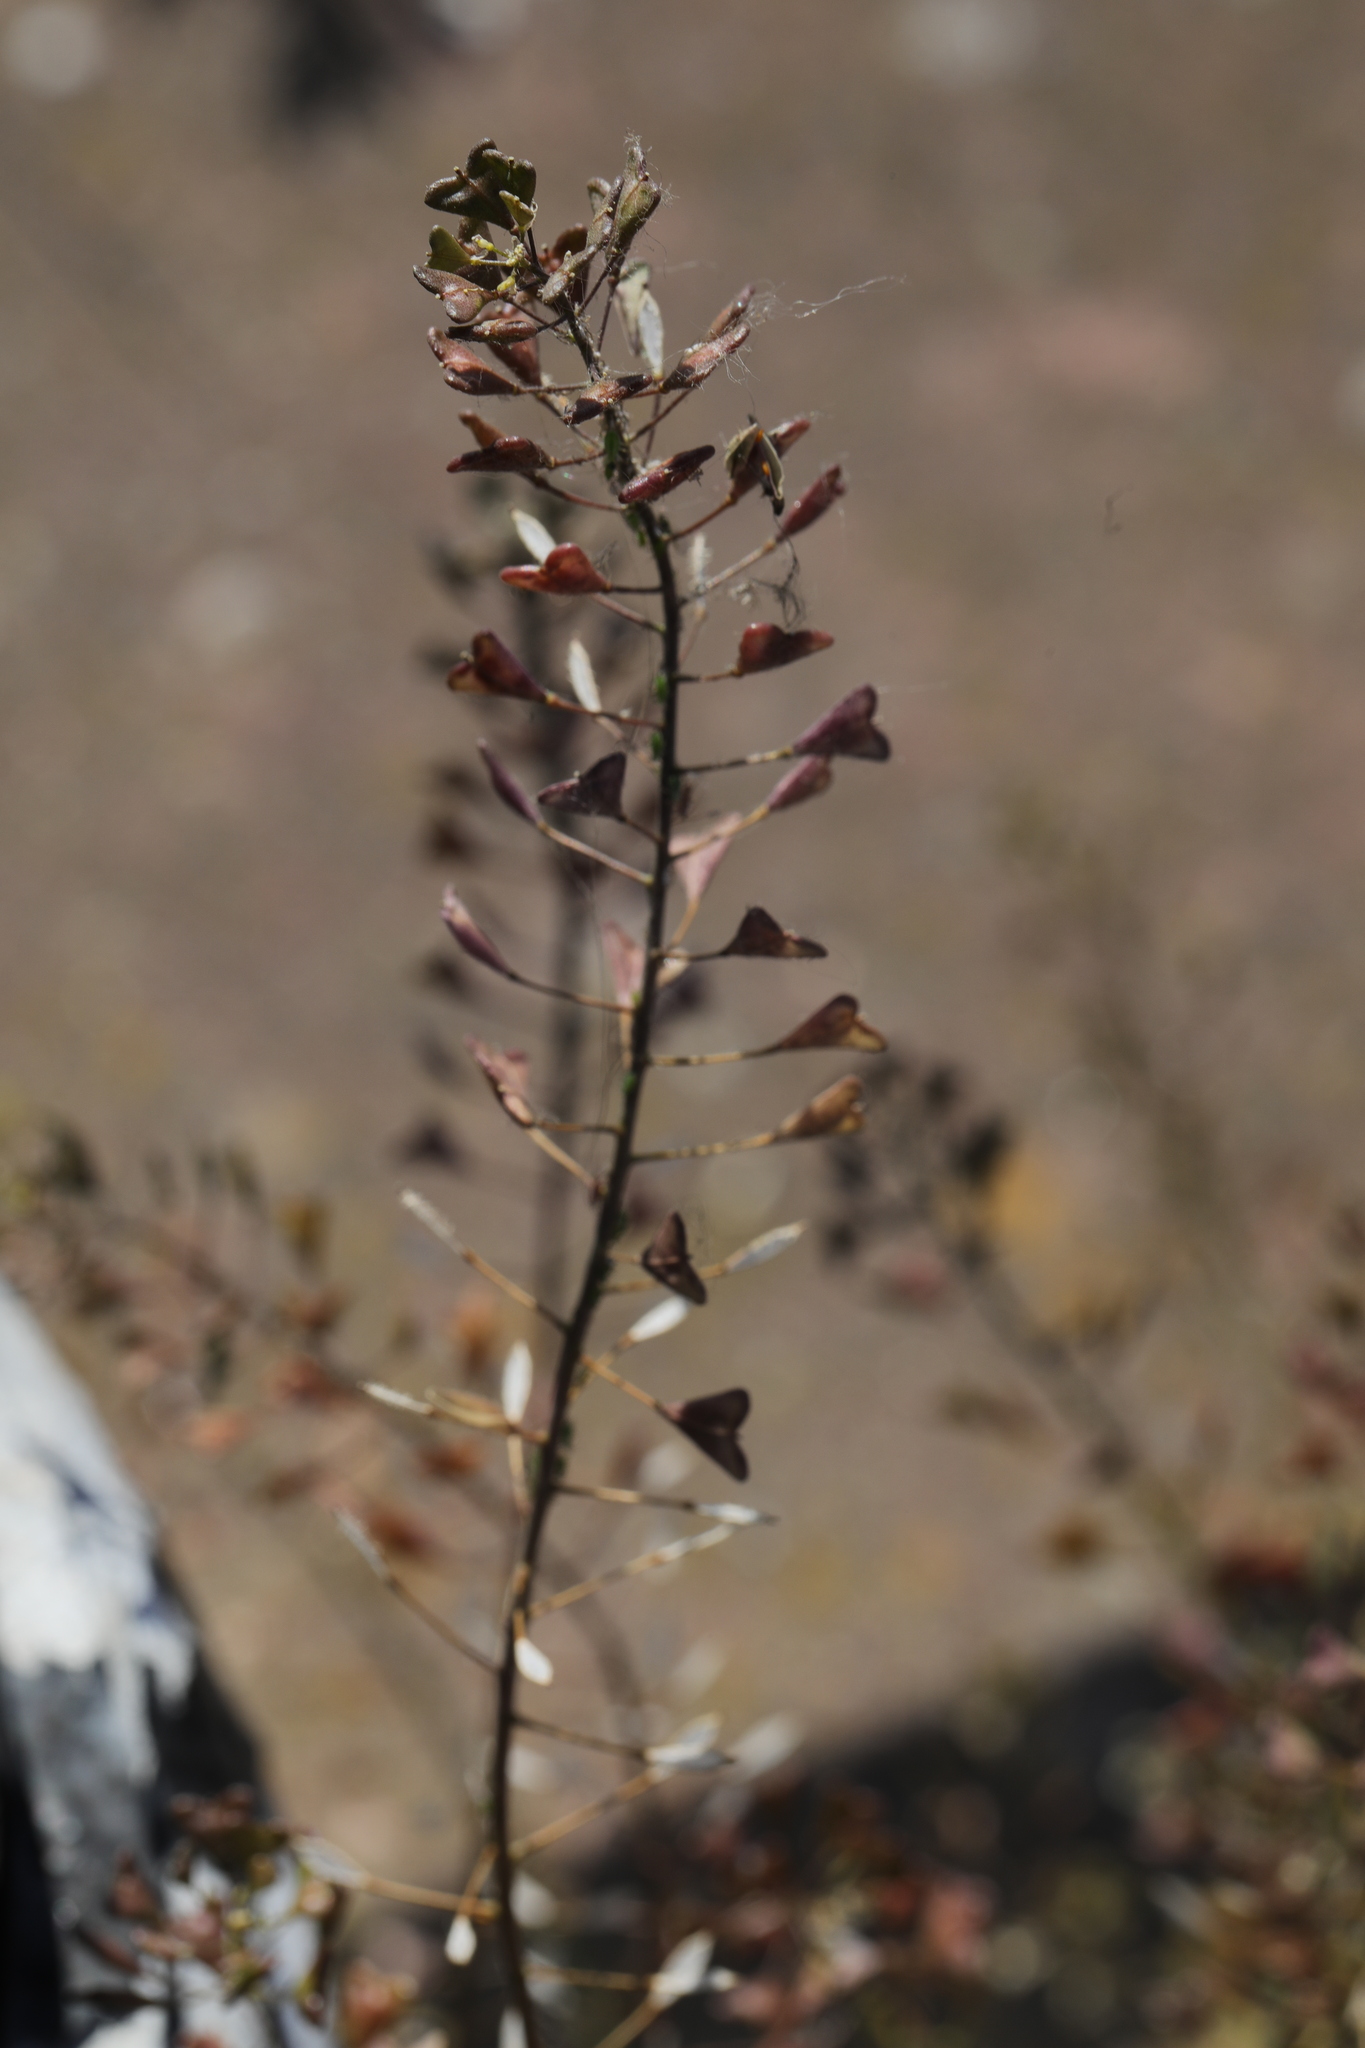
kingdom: Plantae
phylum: Tracheophyta
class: Magnoliopsida
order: Brassicales
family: Brassicaceae
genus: Capsella
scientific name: Capsella bursa-pastoris
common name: Shepherd's purse
